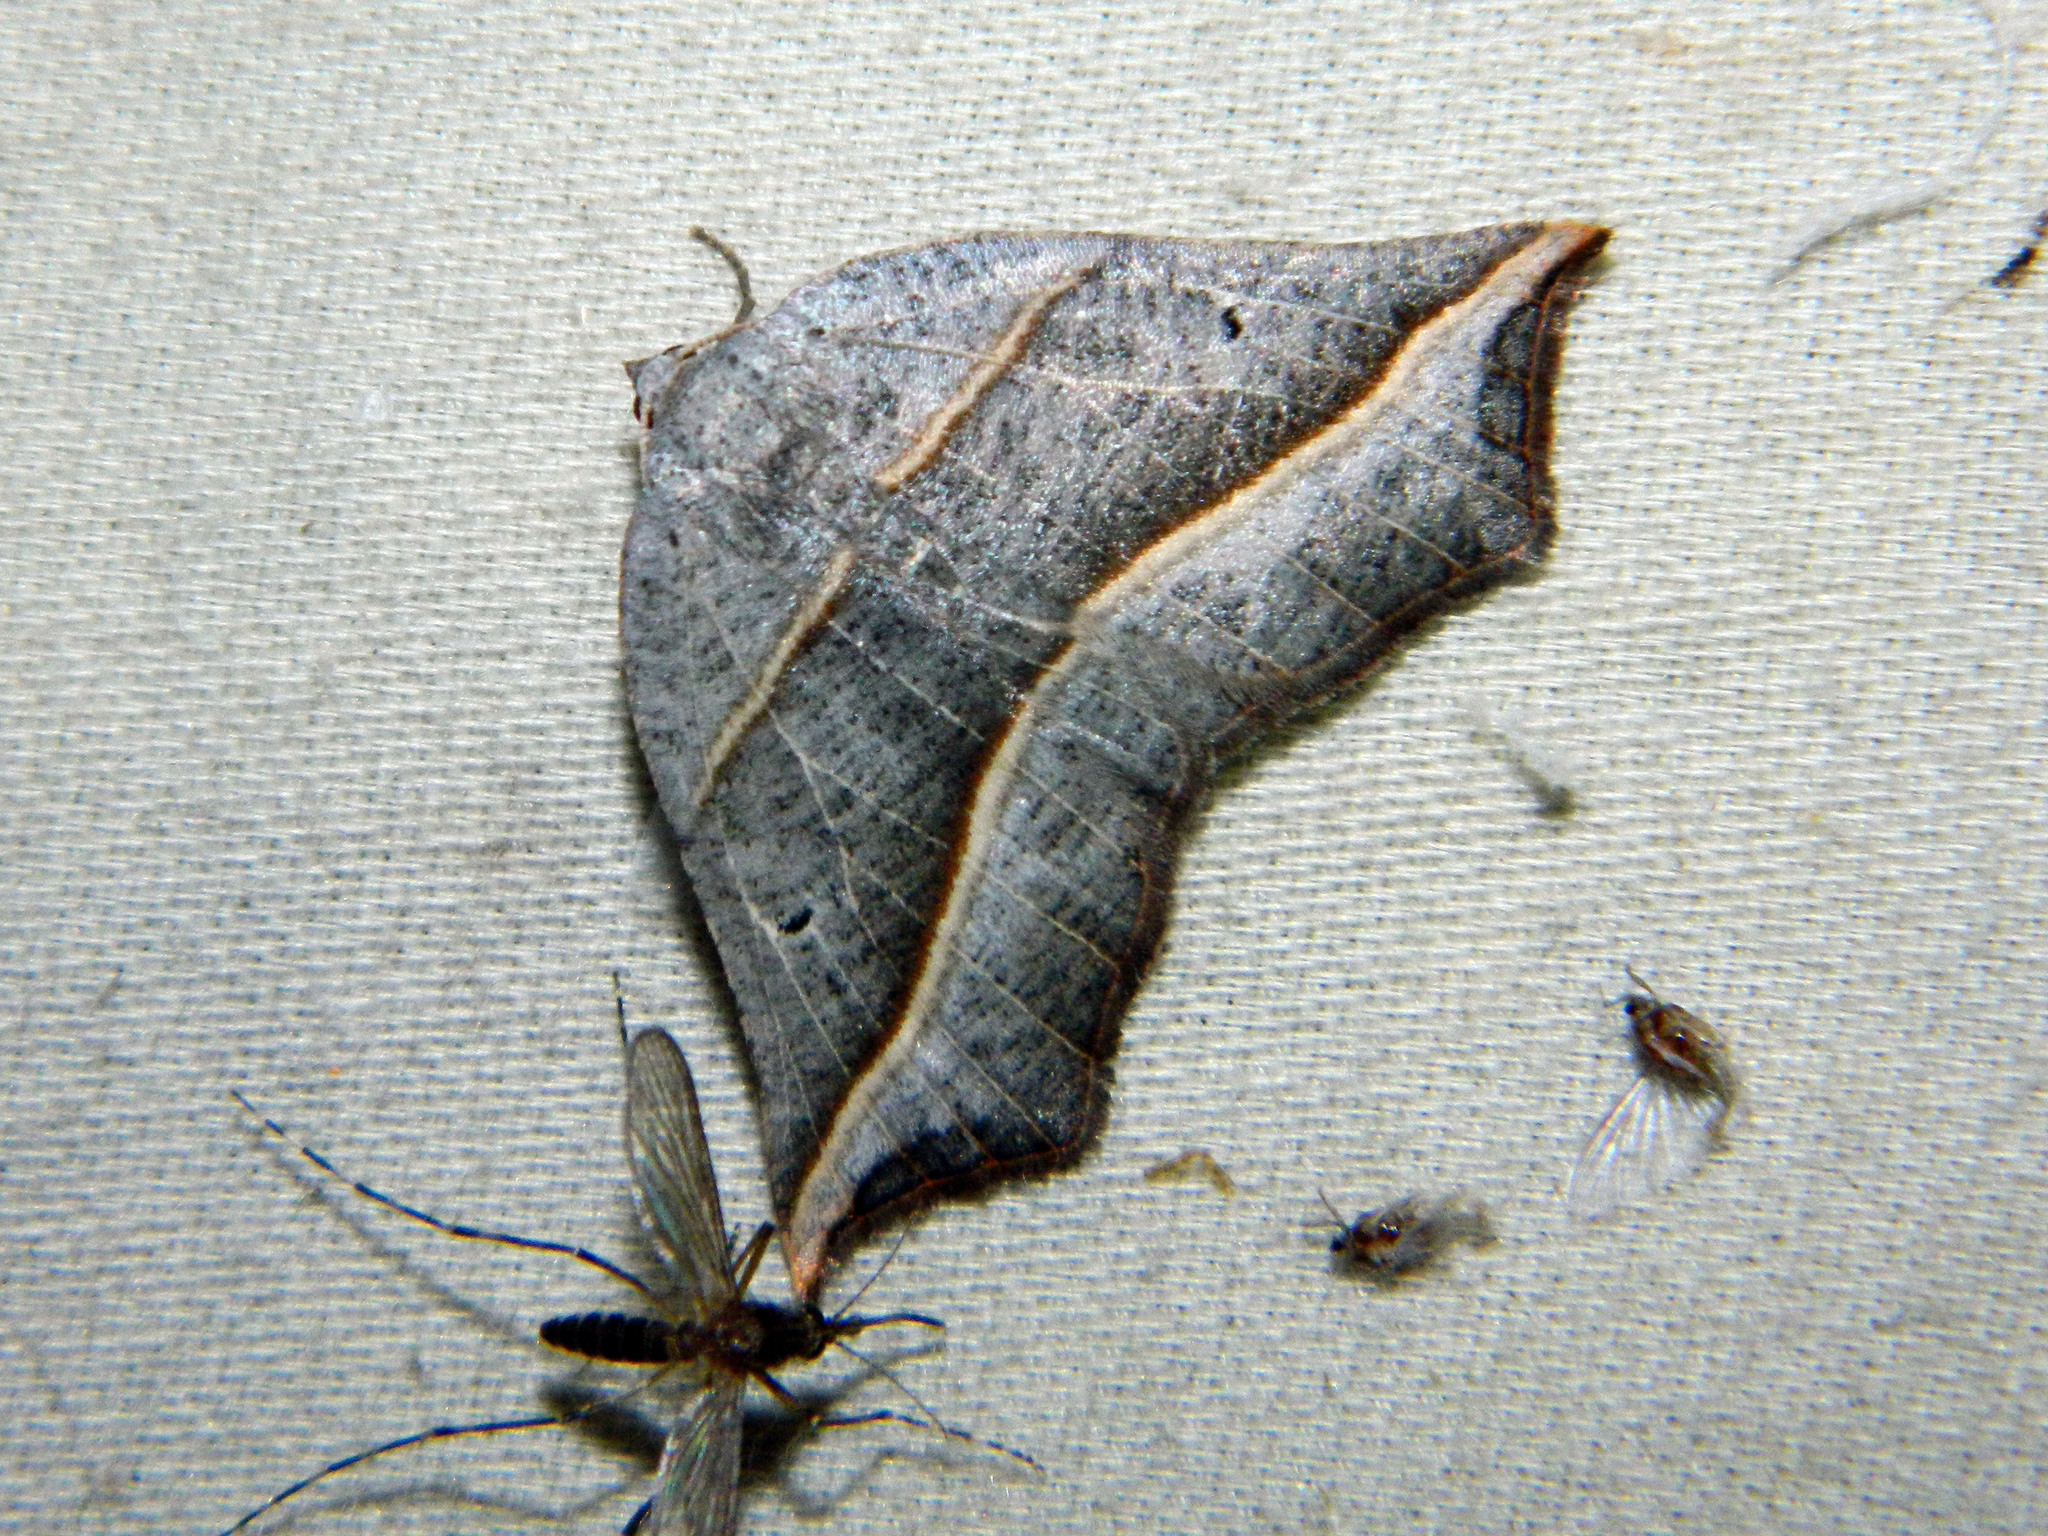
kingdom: Animalia
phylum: Arthropoda
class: Insecta
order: Lepidoptera
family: Geometridae
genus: Metanema
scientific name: Metanema determinata
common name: Dark metanema
